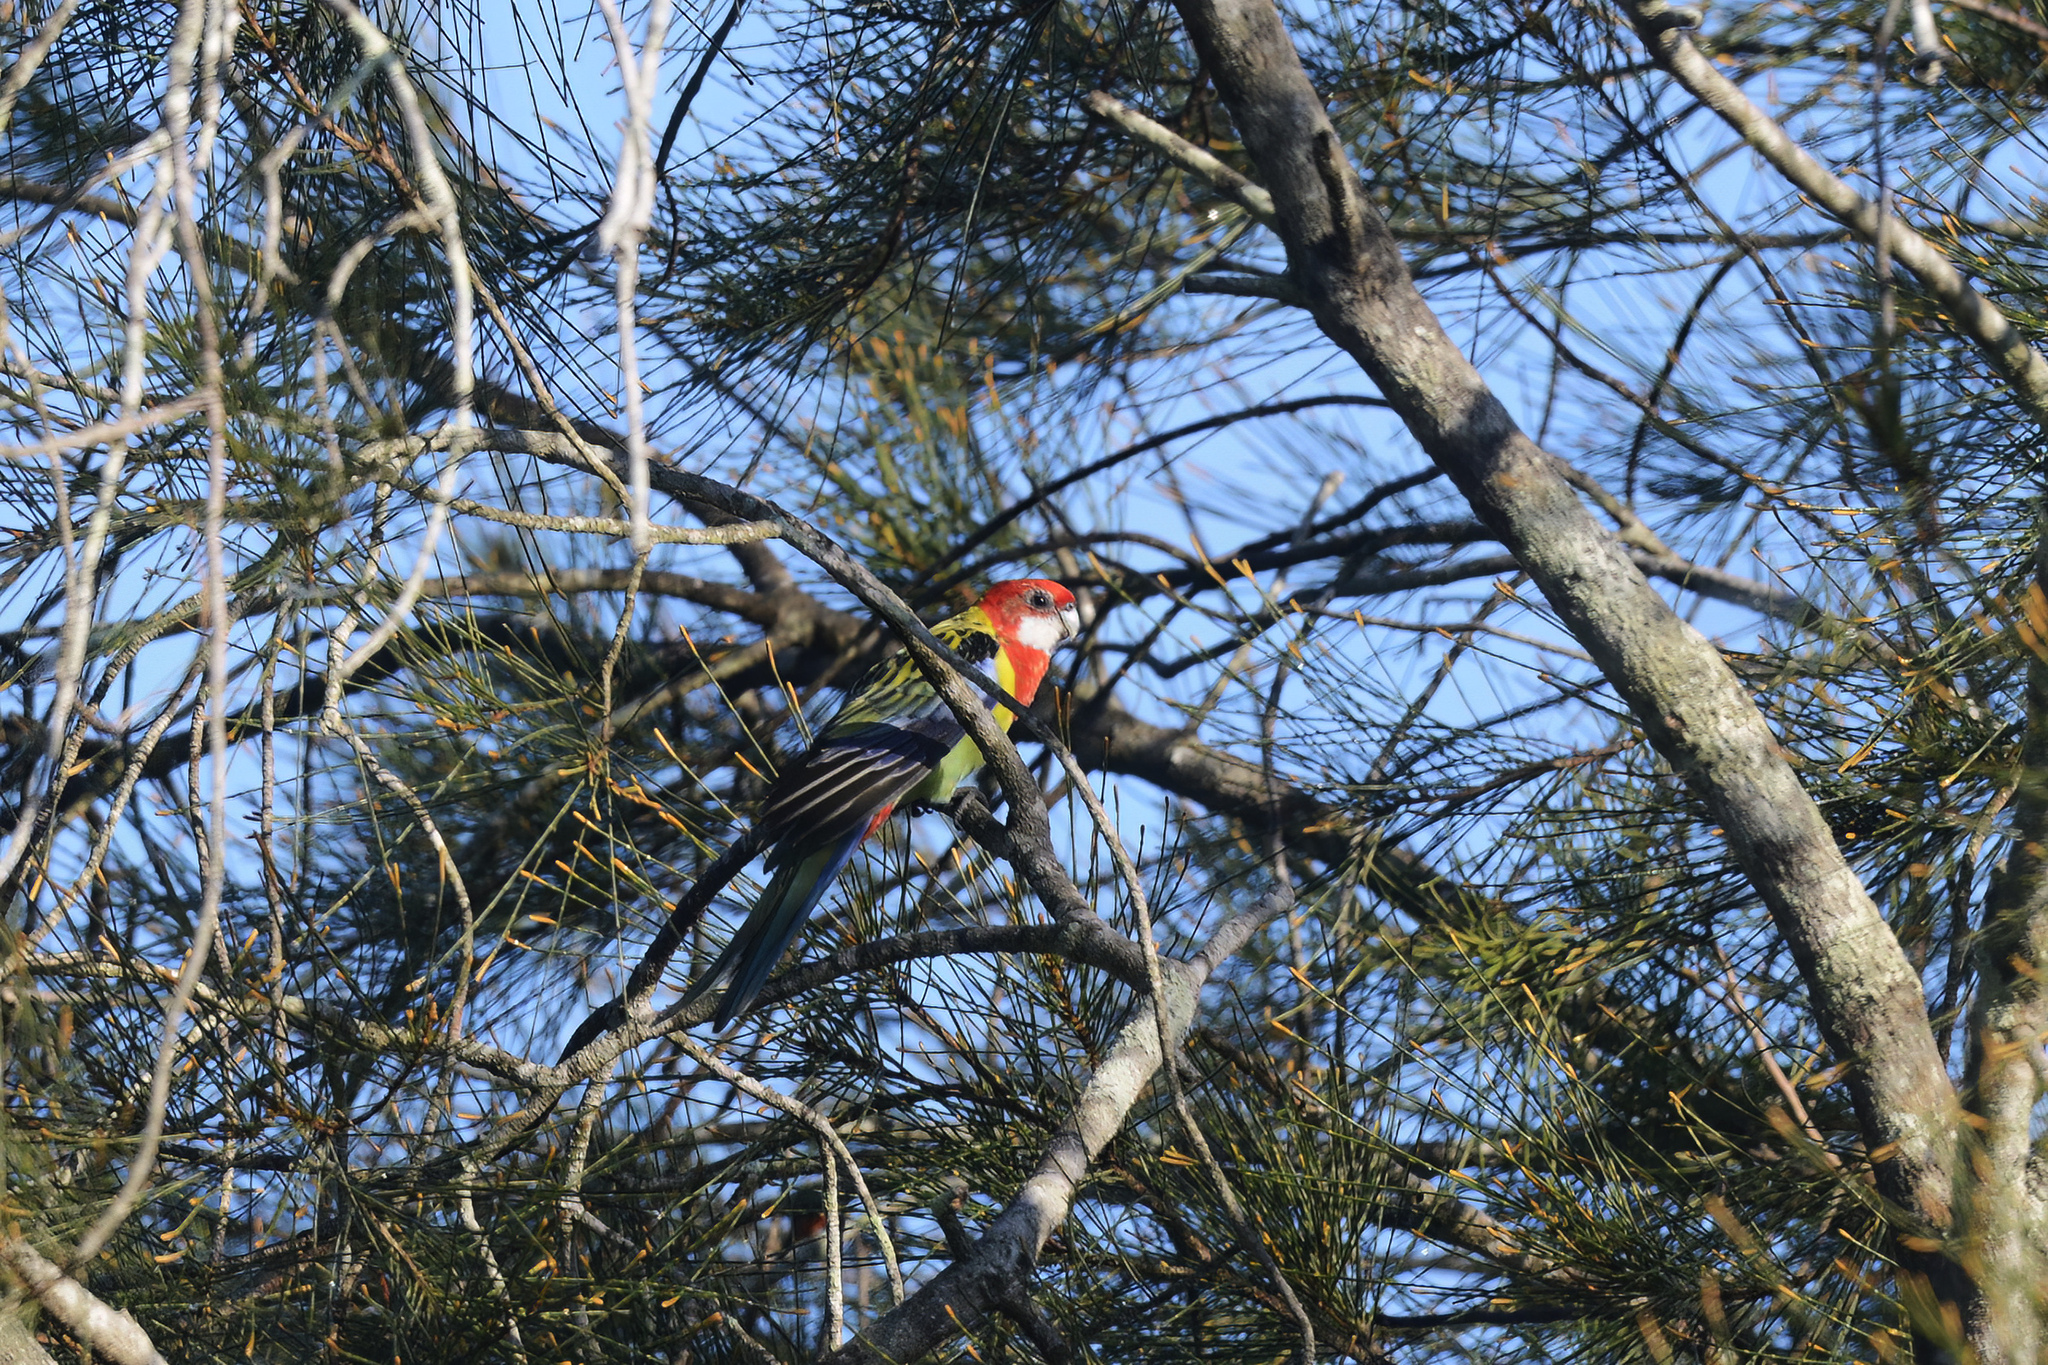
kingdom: Animalia
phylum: Chordata
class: Aves
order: Psittaciformes
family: Psittacidae
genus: Platycercus
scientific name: Platycercus eximius
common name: Eastern rosella
